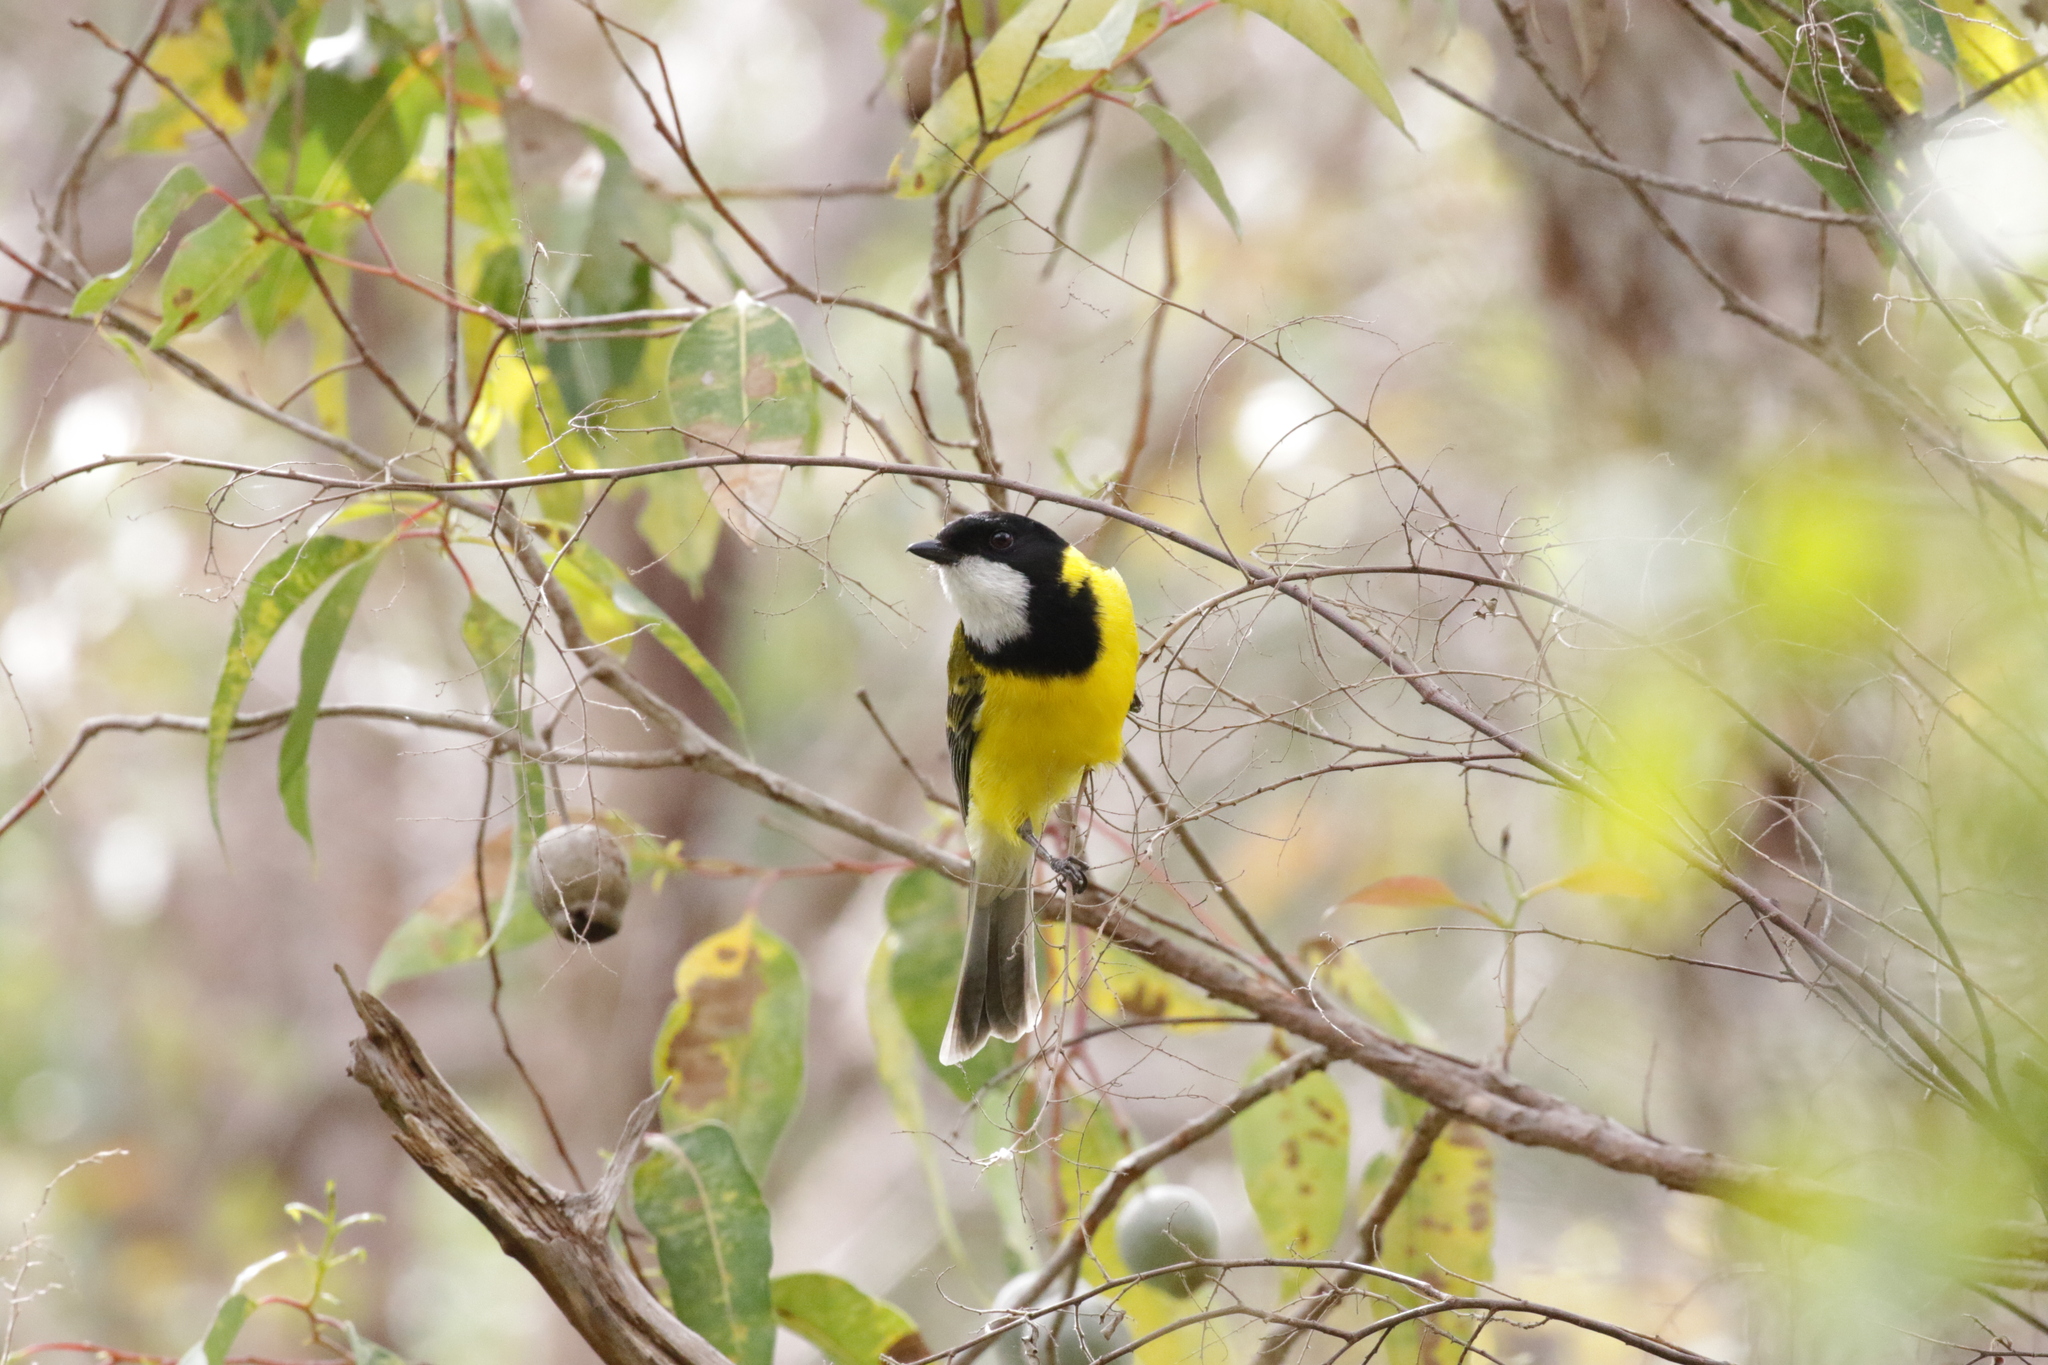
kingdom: Animalia
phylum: Chordata
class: Aves
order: Passeriformes
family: Pachycephalidae
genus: Pachycephala
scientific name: Pachycephala fuliginosa
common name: Western whistler
